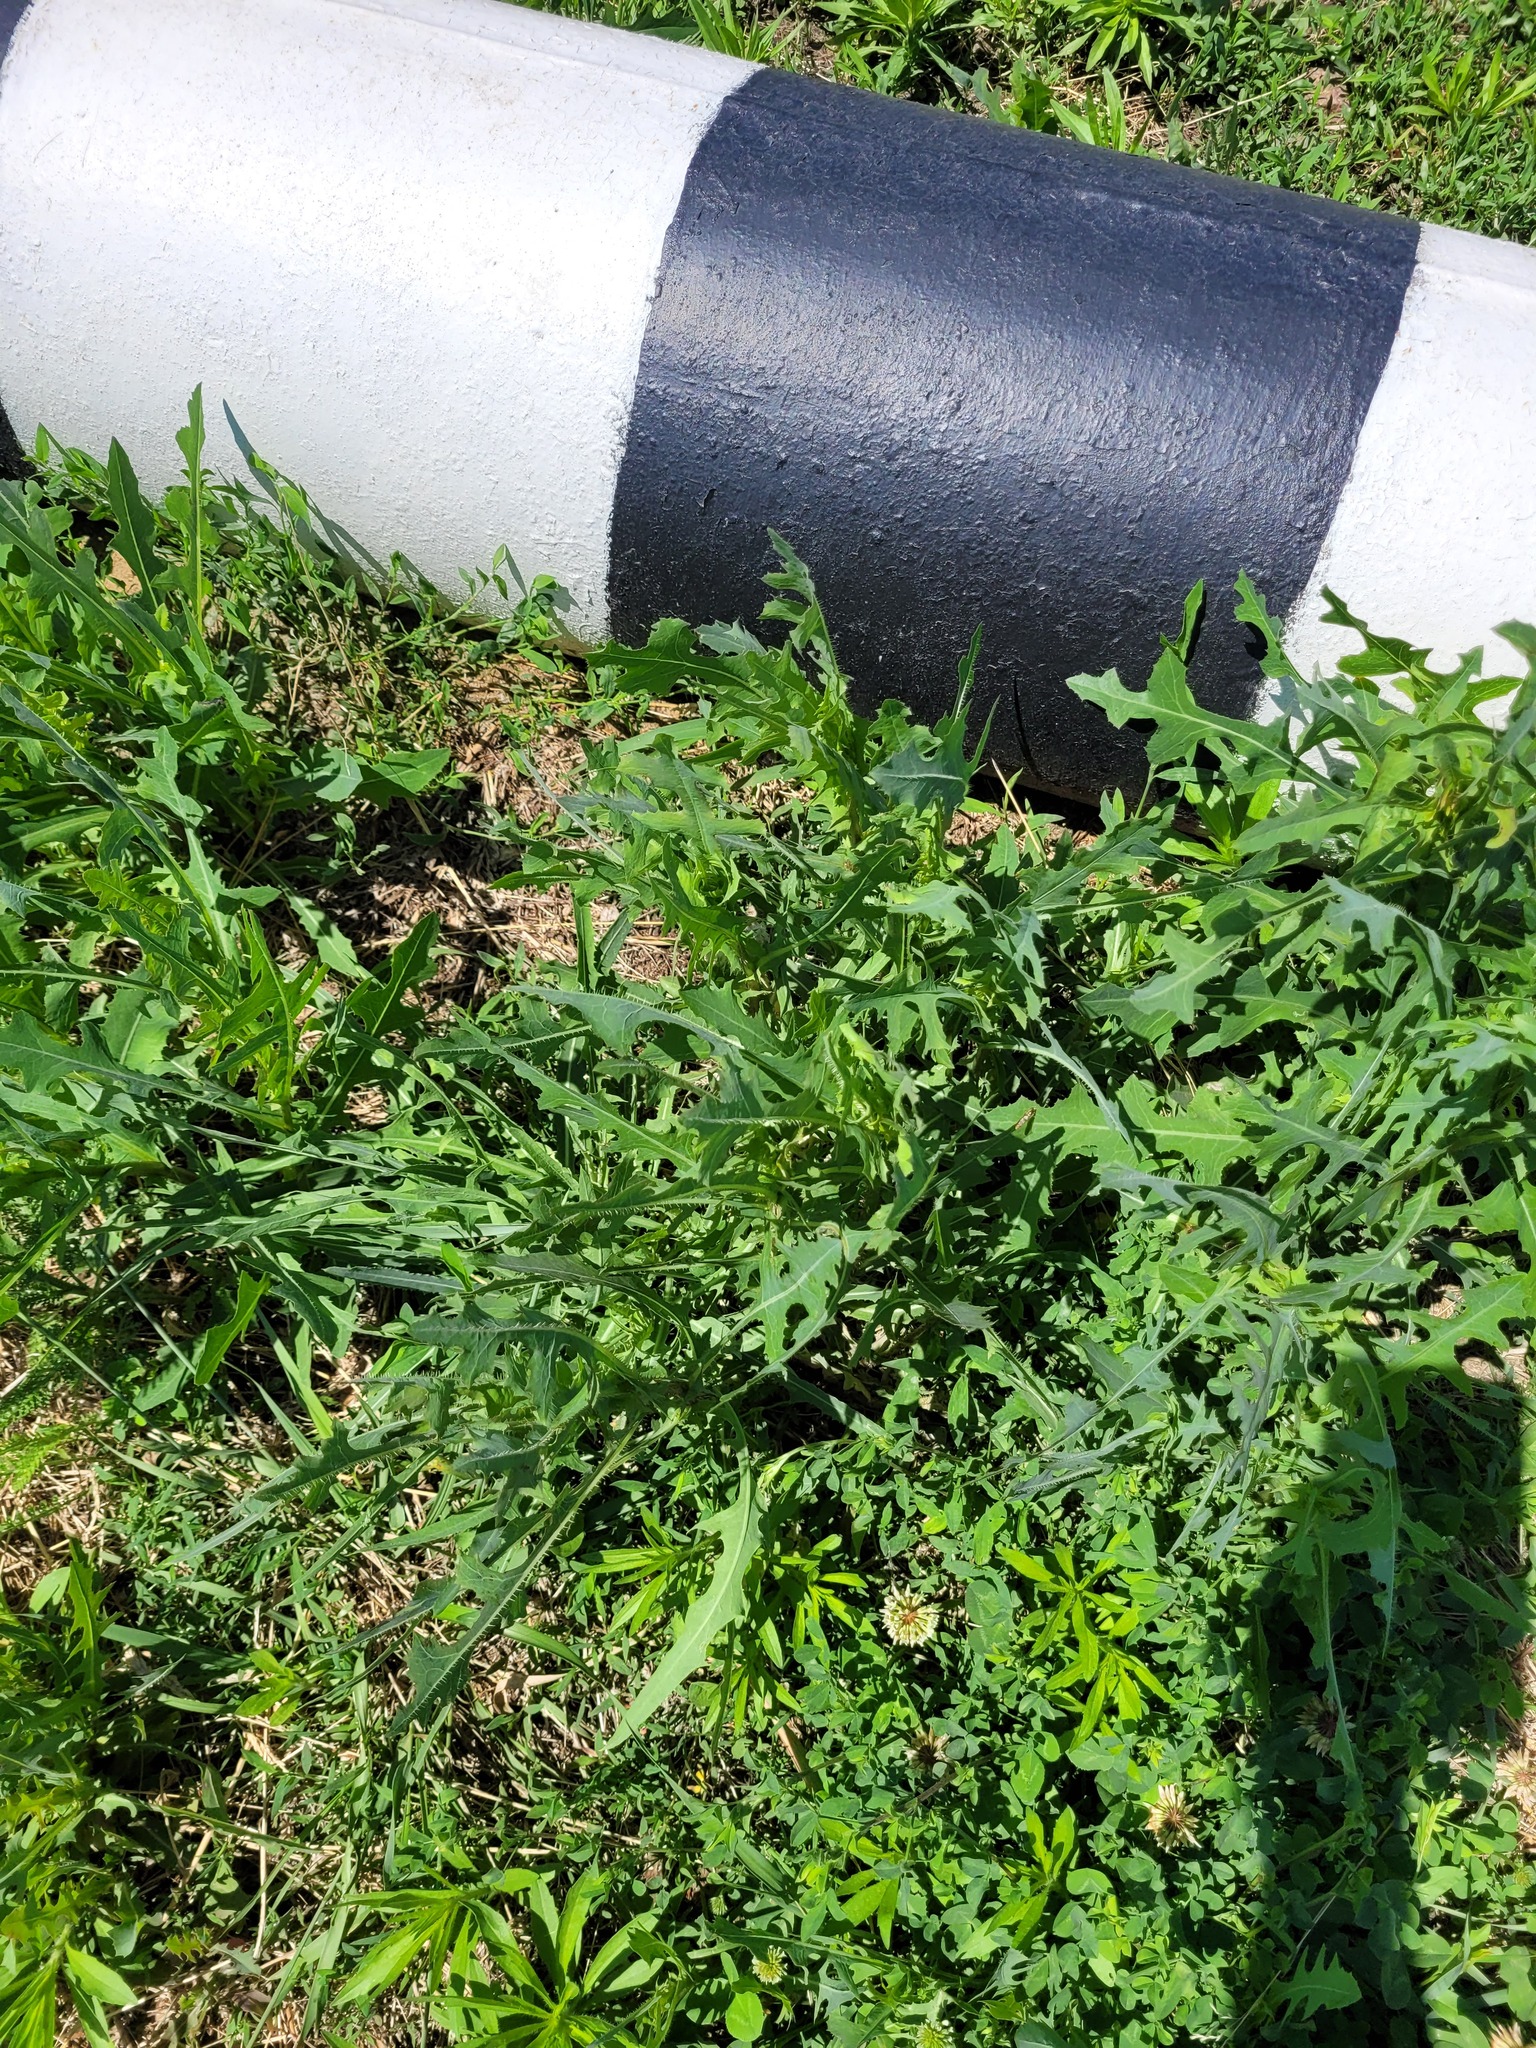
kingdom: Plantae
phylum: Tracheophyta
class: Magnoliopsida
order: Asterales
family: Asteraceae
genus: Lactuca
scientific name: Lactuca serriola
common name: Prickly lettuce
